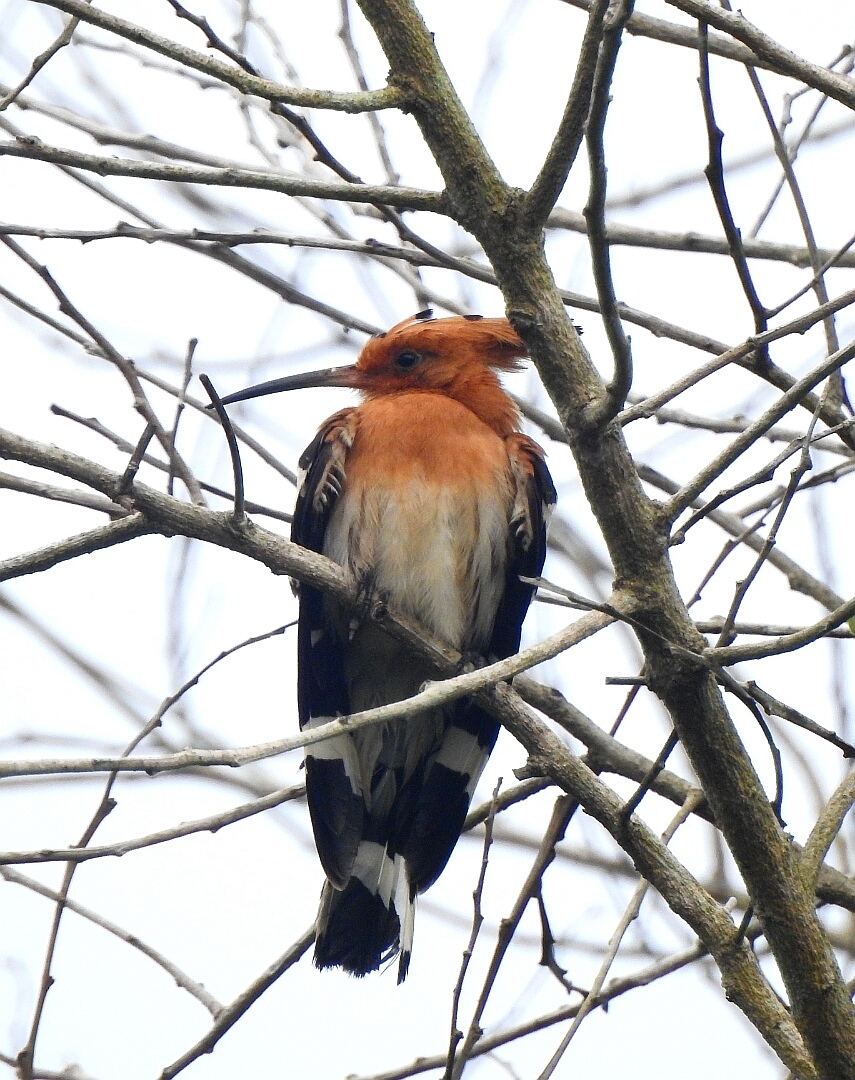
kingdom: Animalia
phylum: Chordata
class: Aves
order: Bucerotiformes
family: Upupidae
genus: Upupa
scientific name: Upupa epops
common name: Eurasian hoopoe
